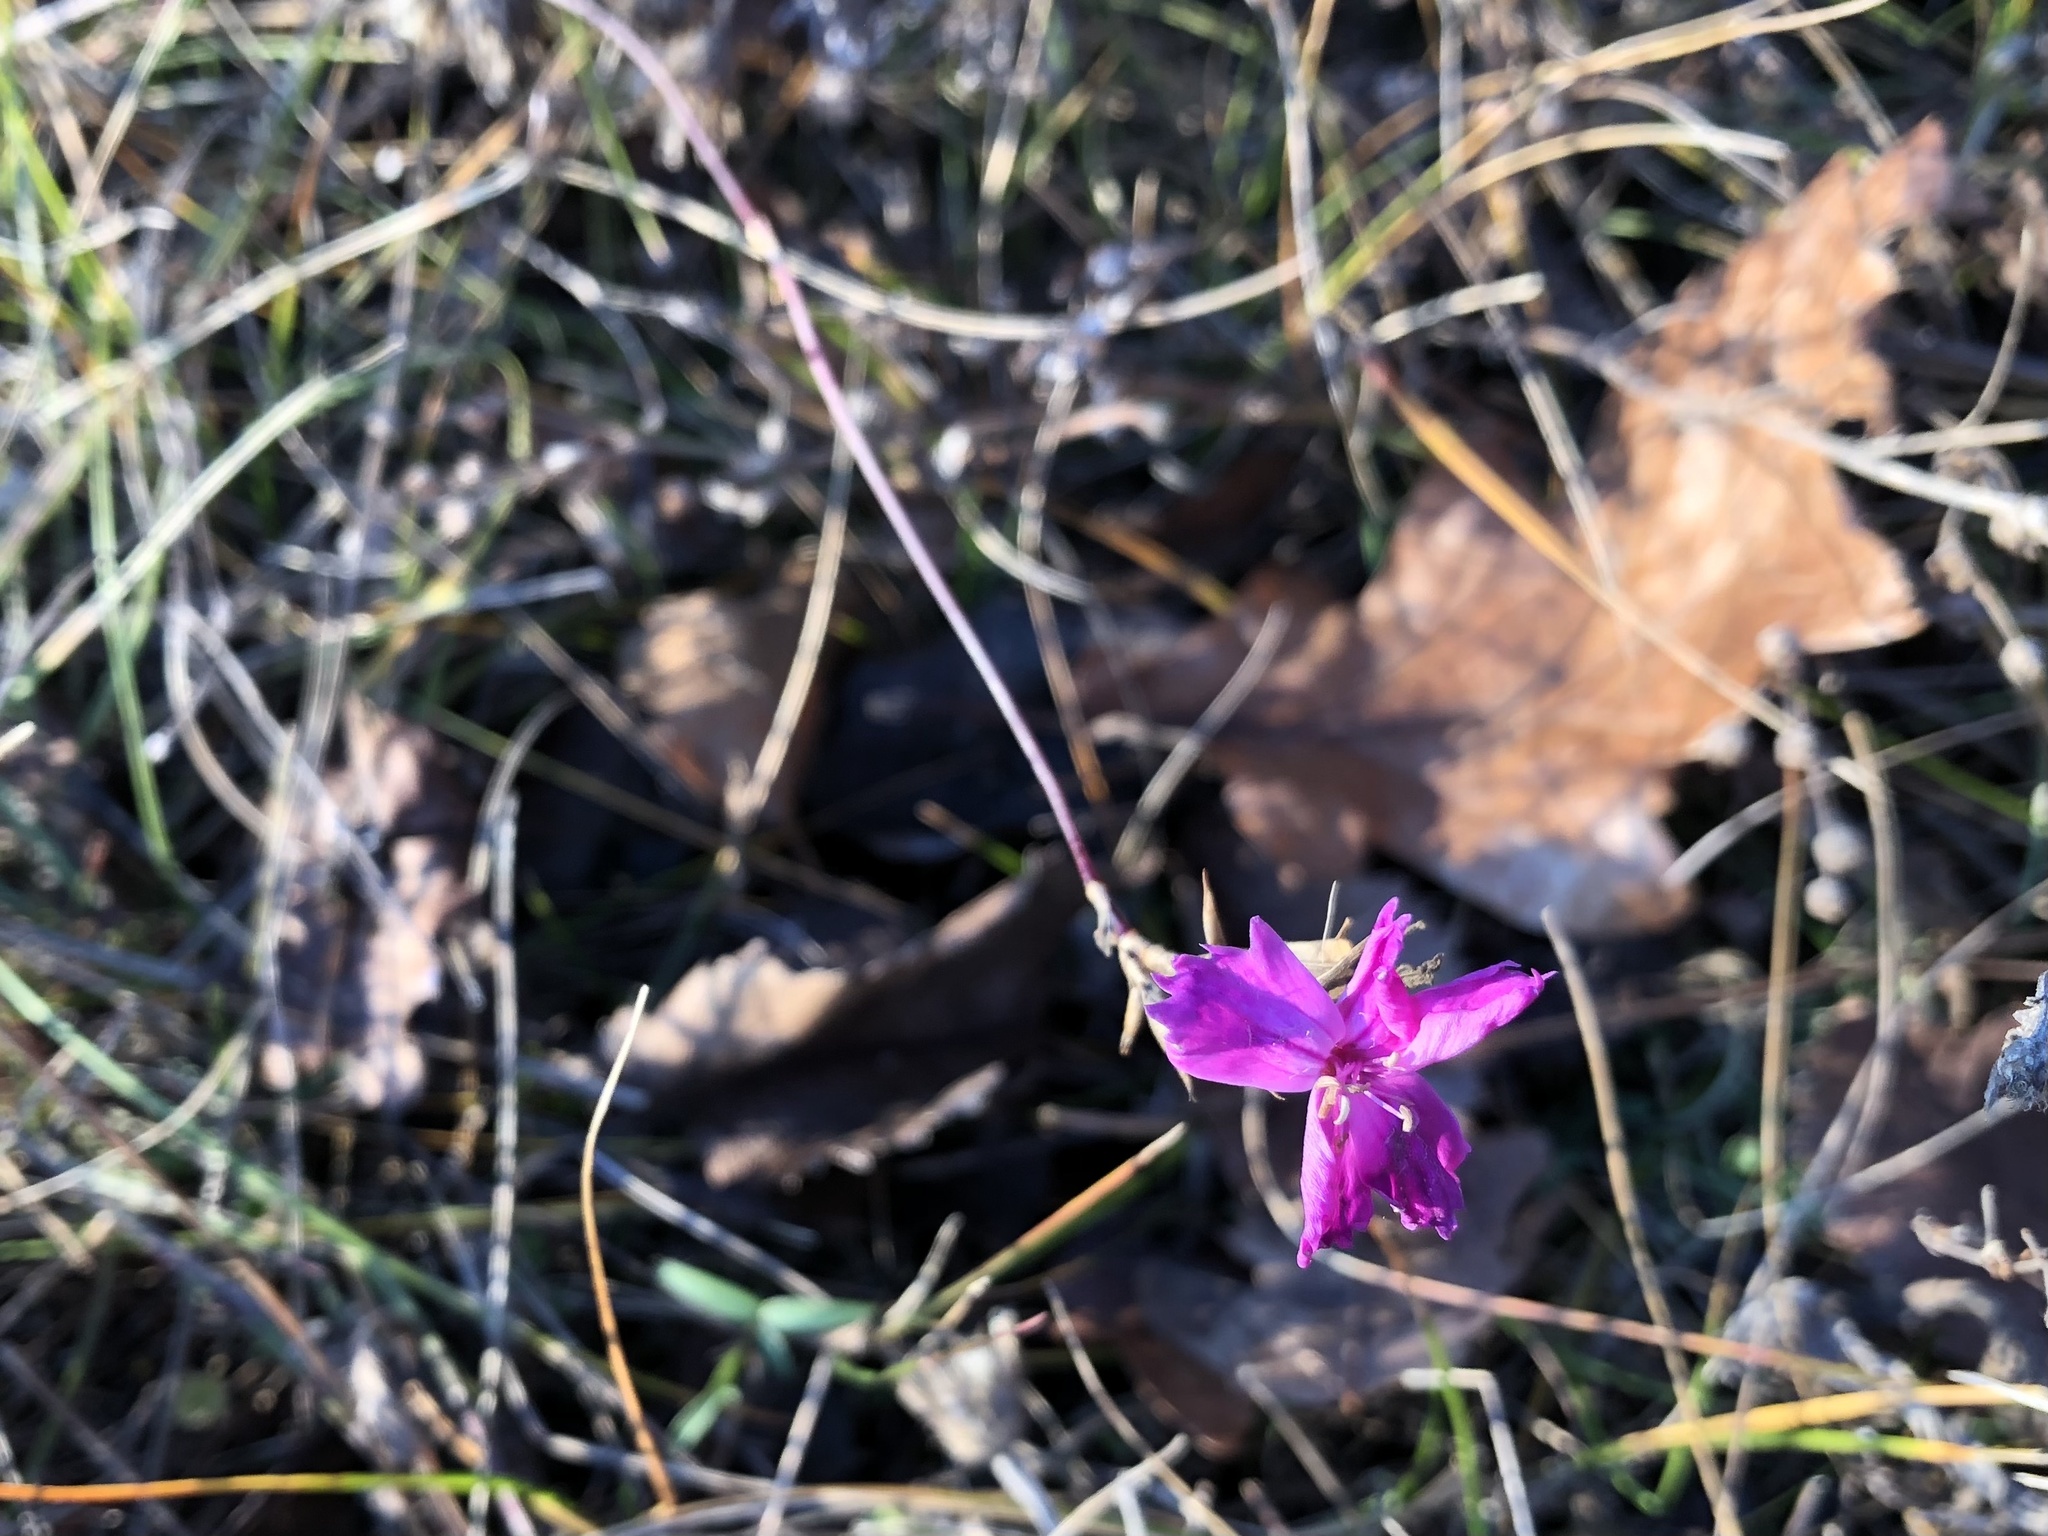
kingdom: Plantae
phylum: Tracheophyta
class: Magnoliopsida
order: Caryophyllales
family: Caryophyllaceae
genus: Dianthus
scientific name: Dianthus carthusianorum
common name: Carthusian pink
